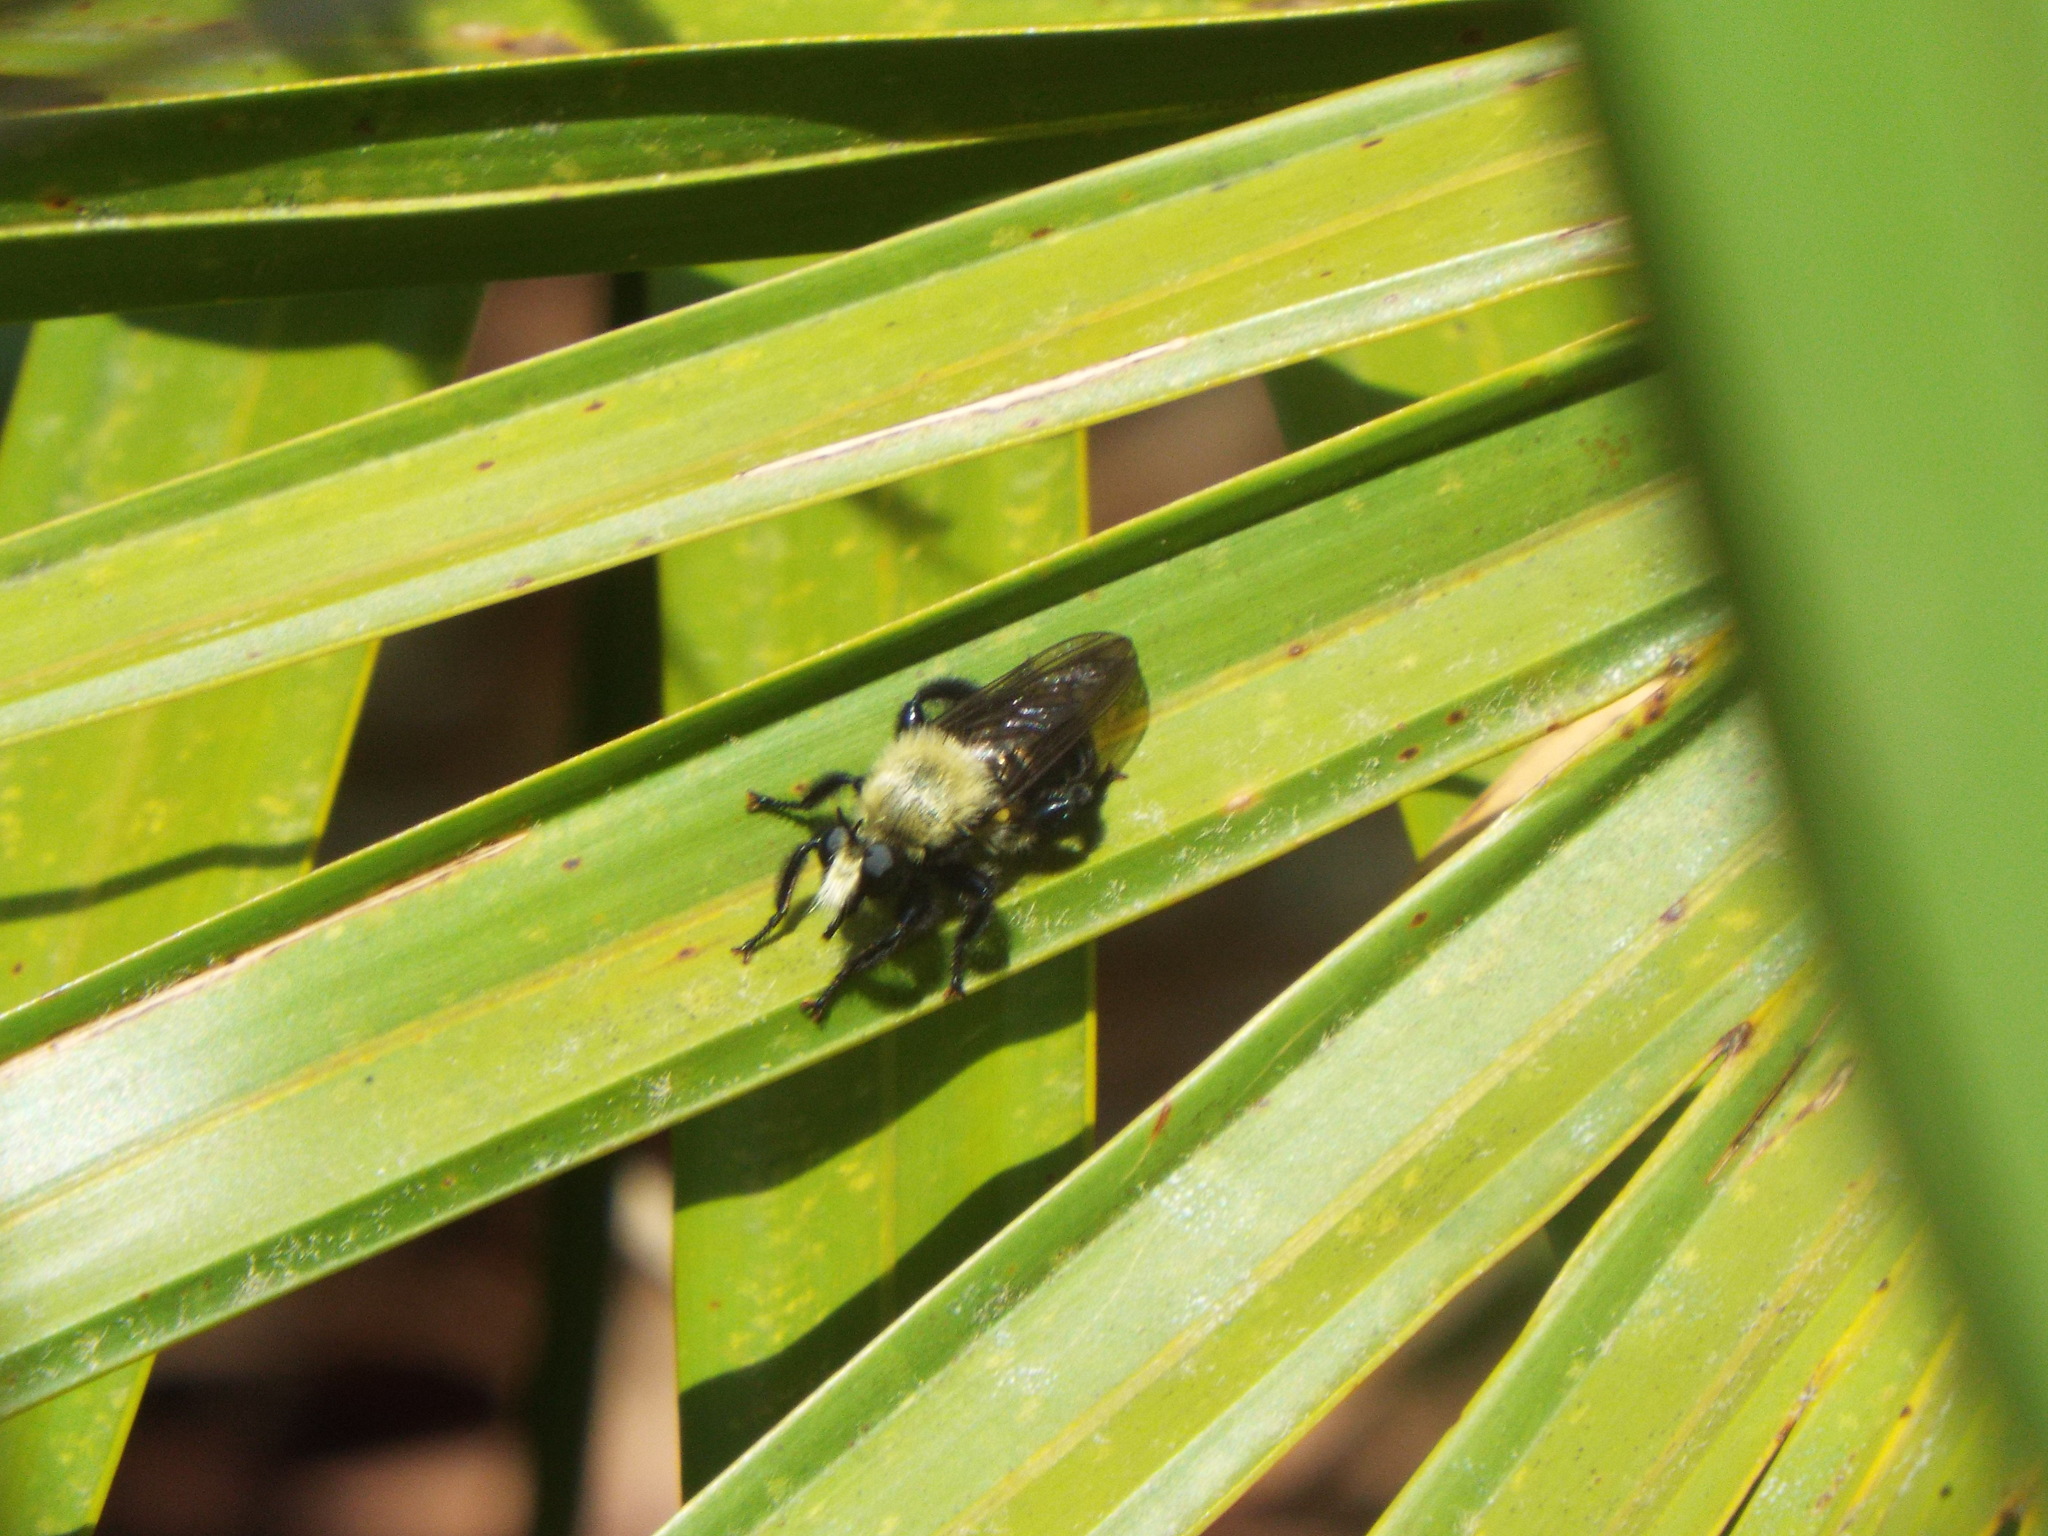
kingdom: Animalia
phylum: Arthropoda
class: Insecta
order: Diptera
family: Asilidae
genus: Laphria
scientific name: Laphria flavicollis
